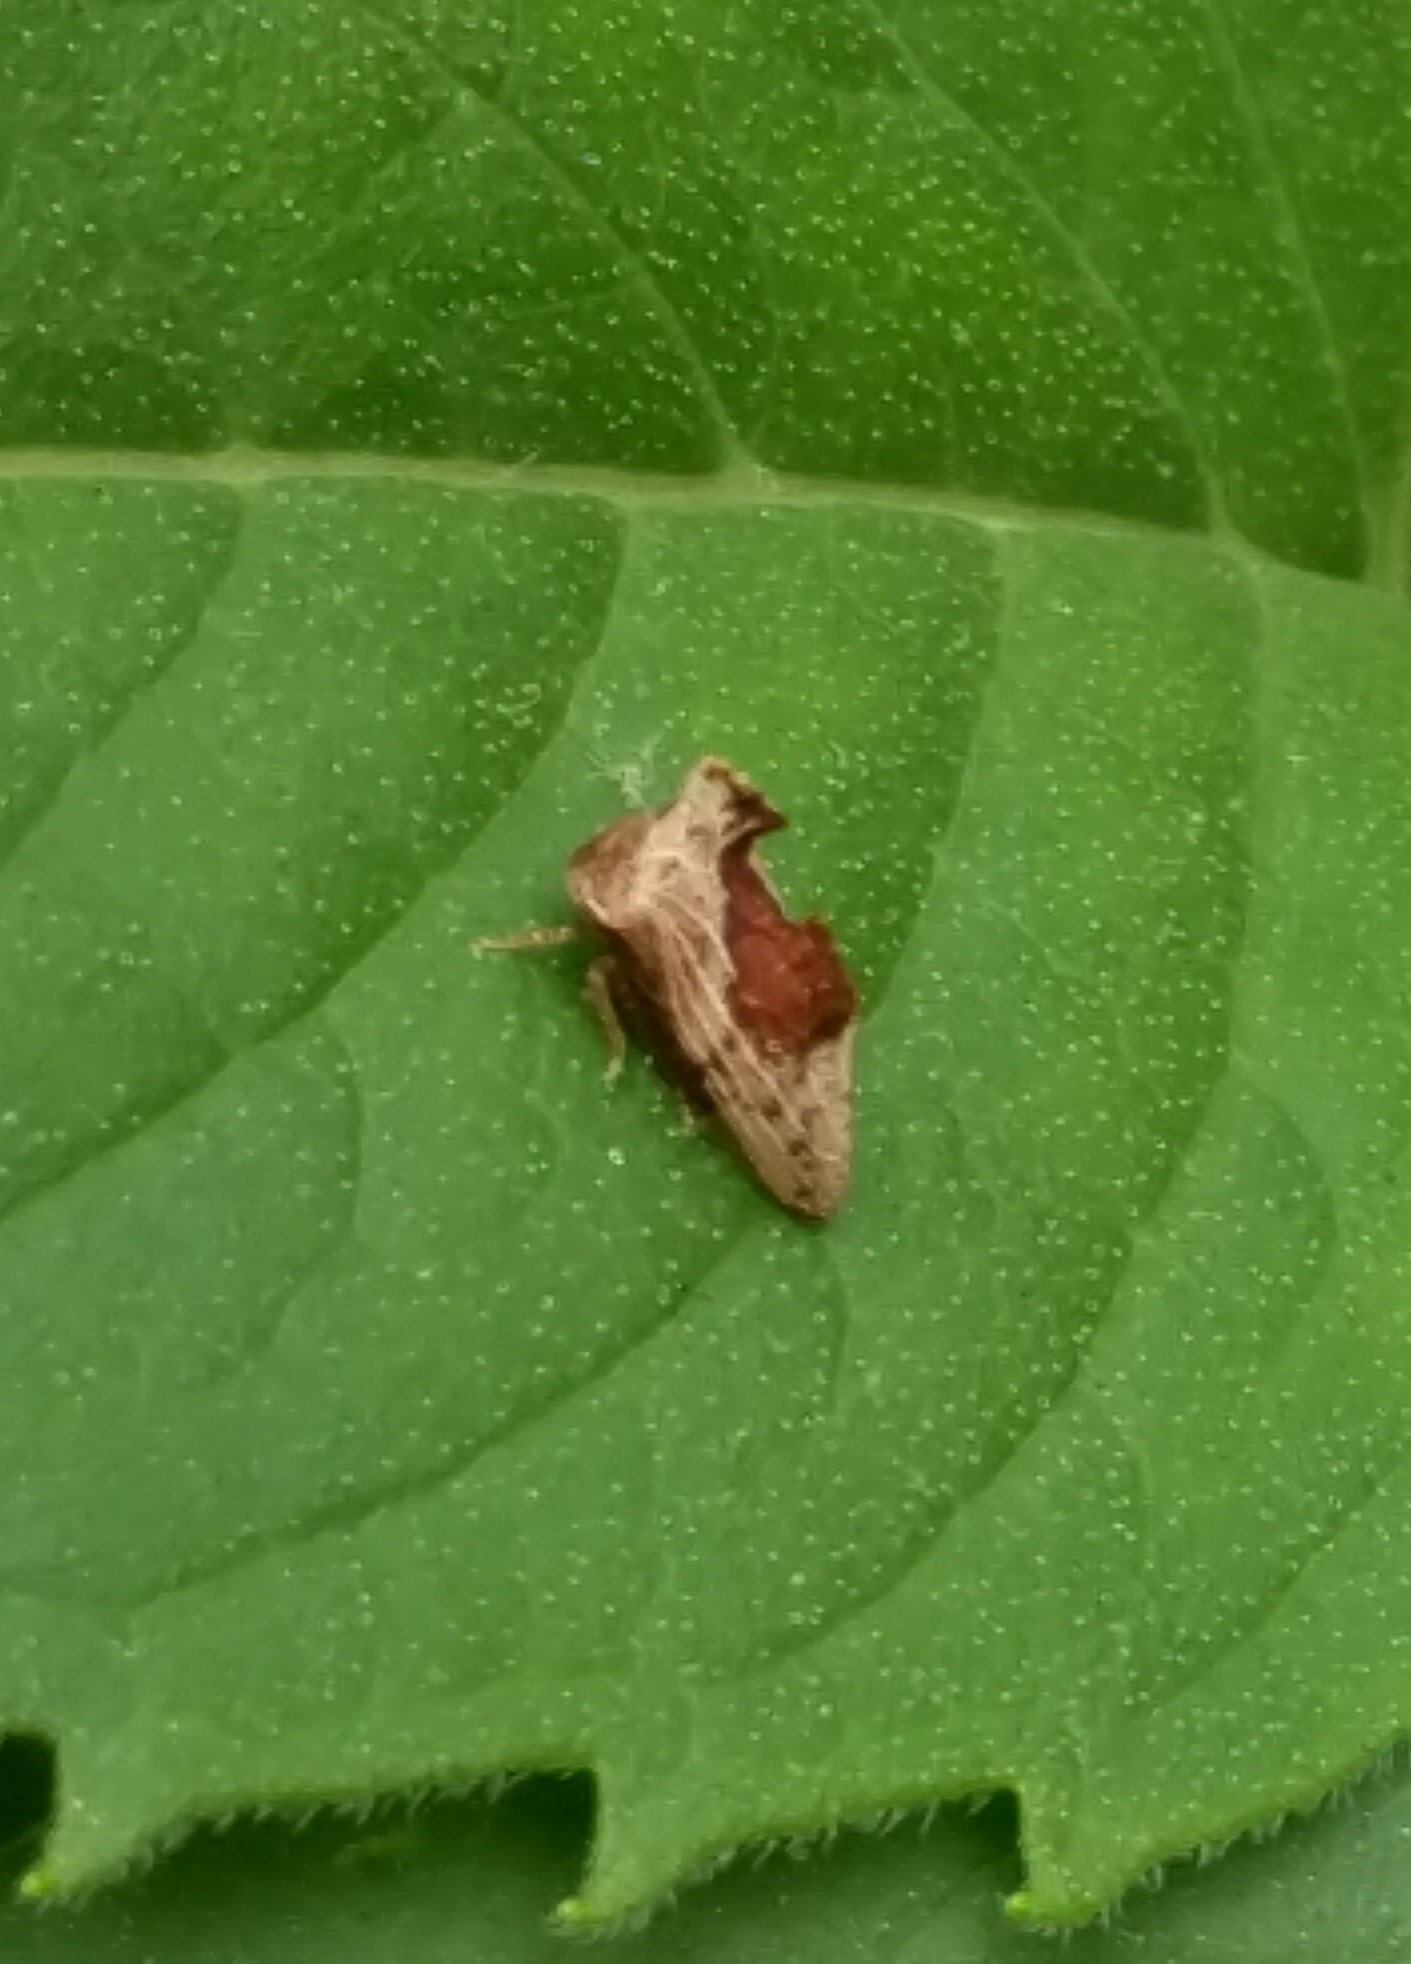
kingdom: Animalia
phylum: Arthropoda
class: Insecta
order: Hemiptera
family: Membracidae
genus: Entylia
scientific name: Entylia carinata
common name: Keeled treehopper
